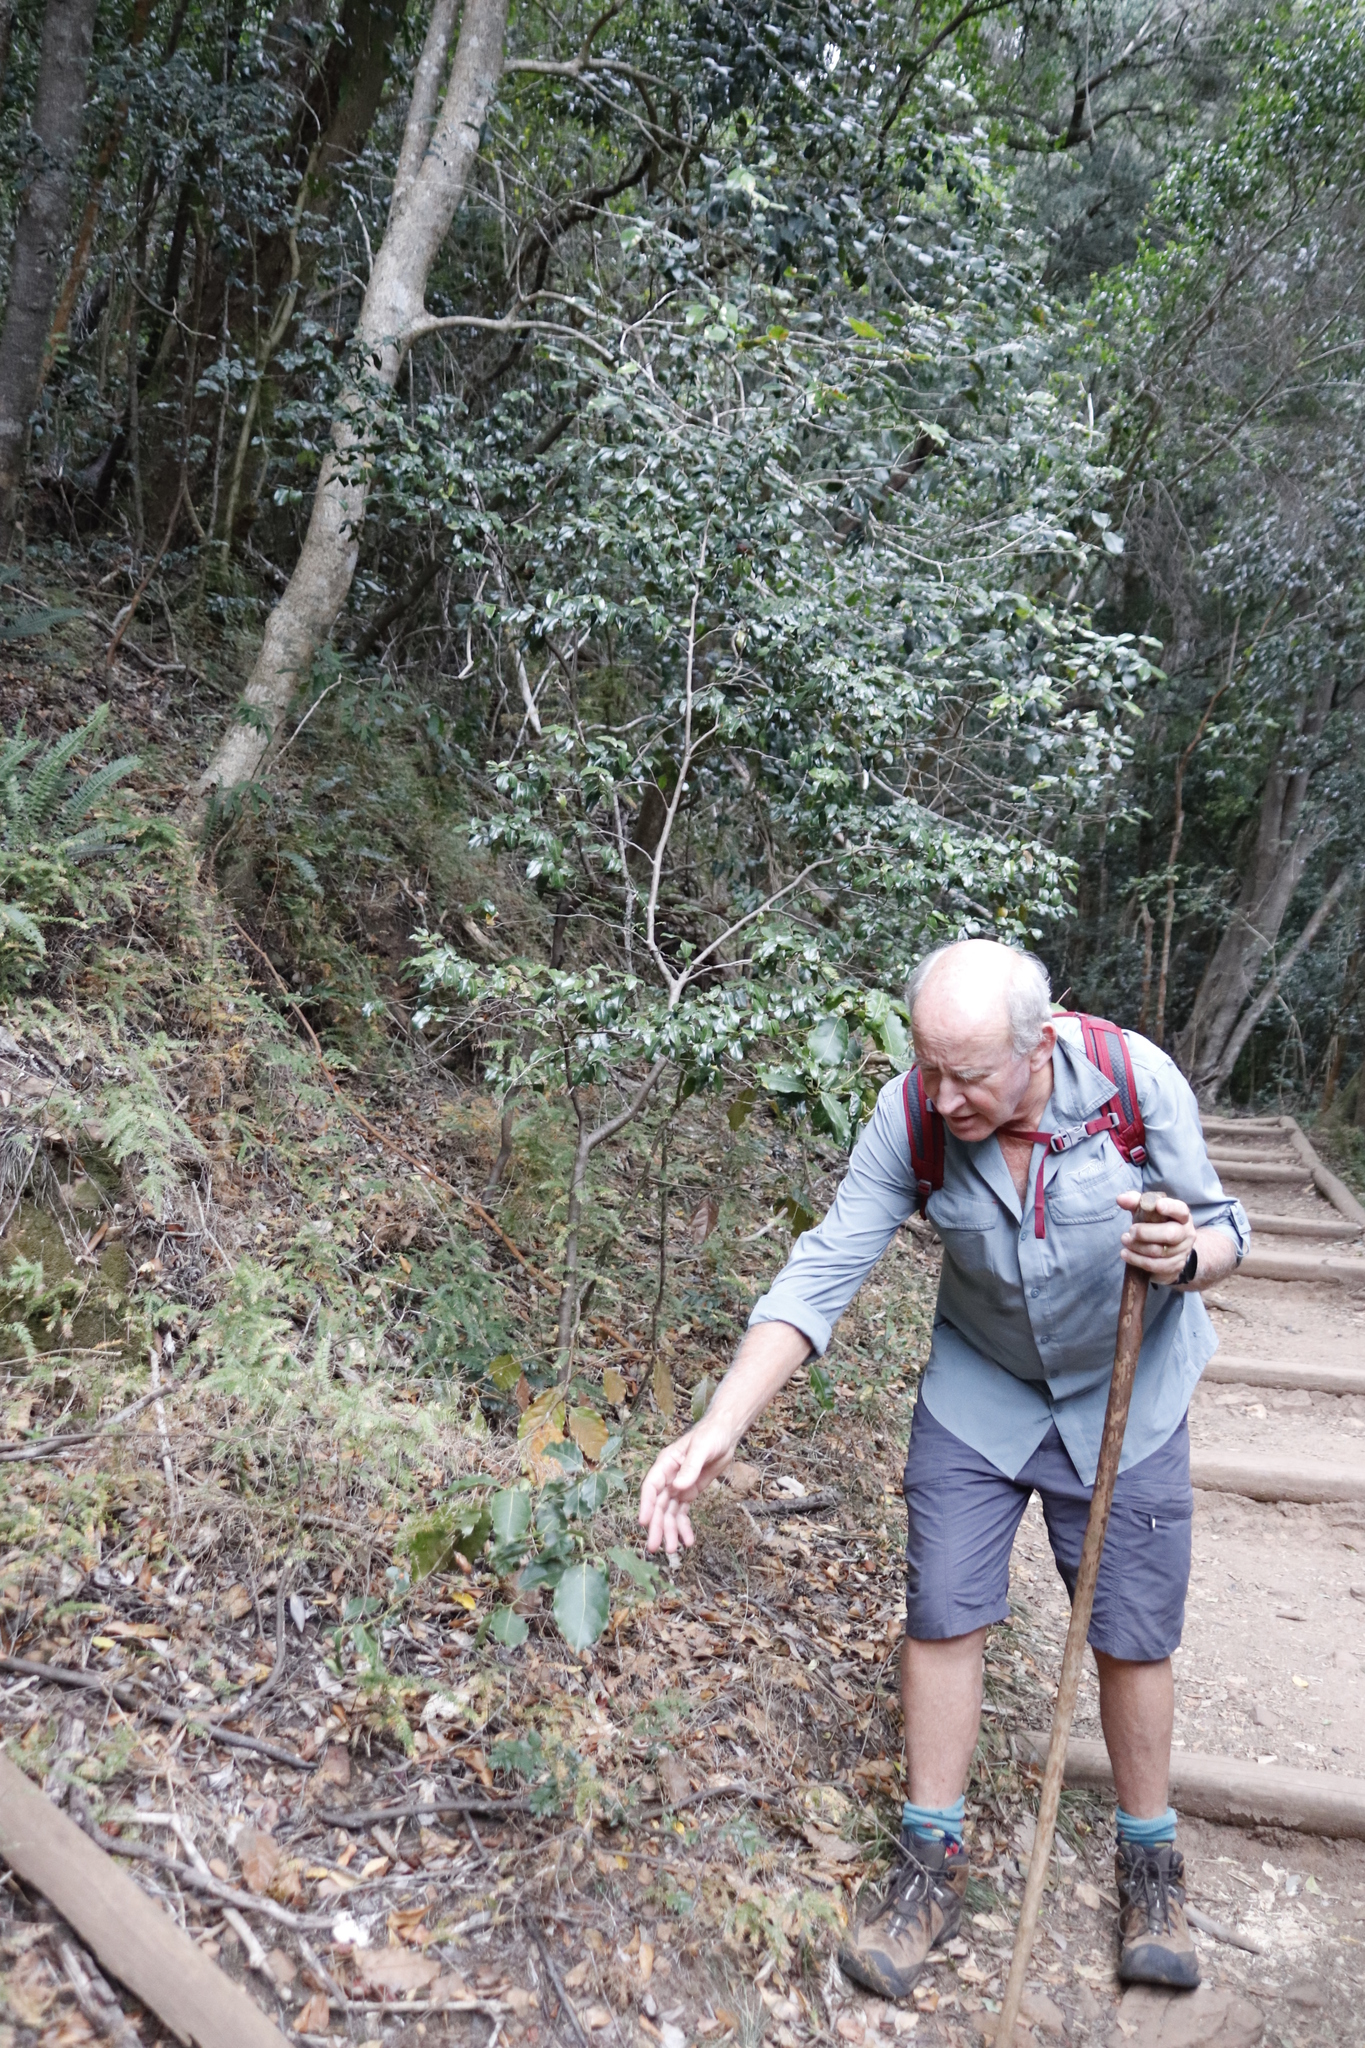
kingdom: Plantae
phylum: Tracheophyta
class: Magnoliopsida
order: Laurales
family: Lauraceae
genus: Ocotea
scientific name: Ocotea bullata
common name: Black stinkwood
